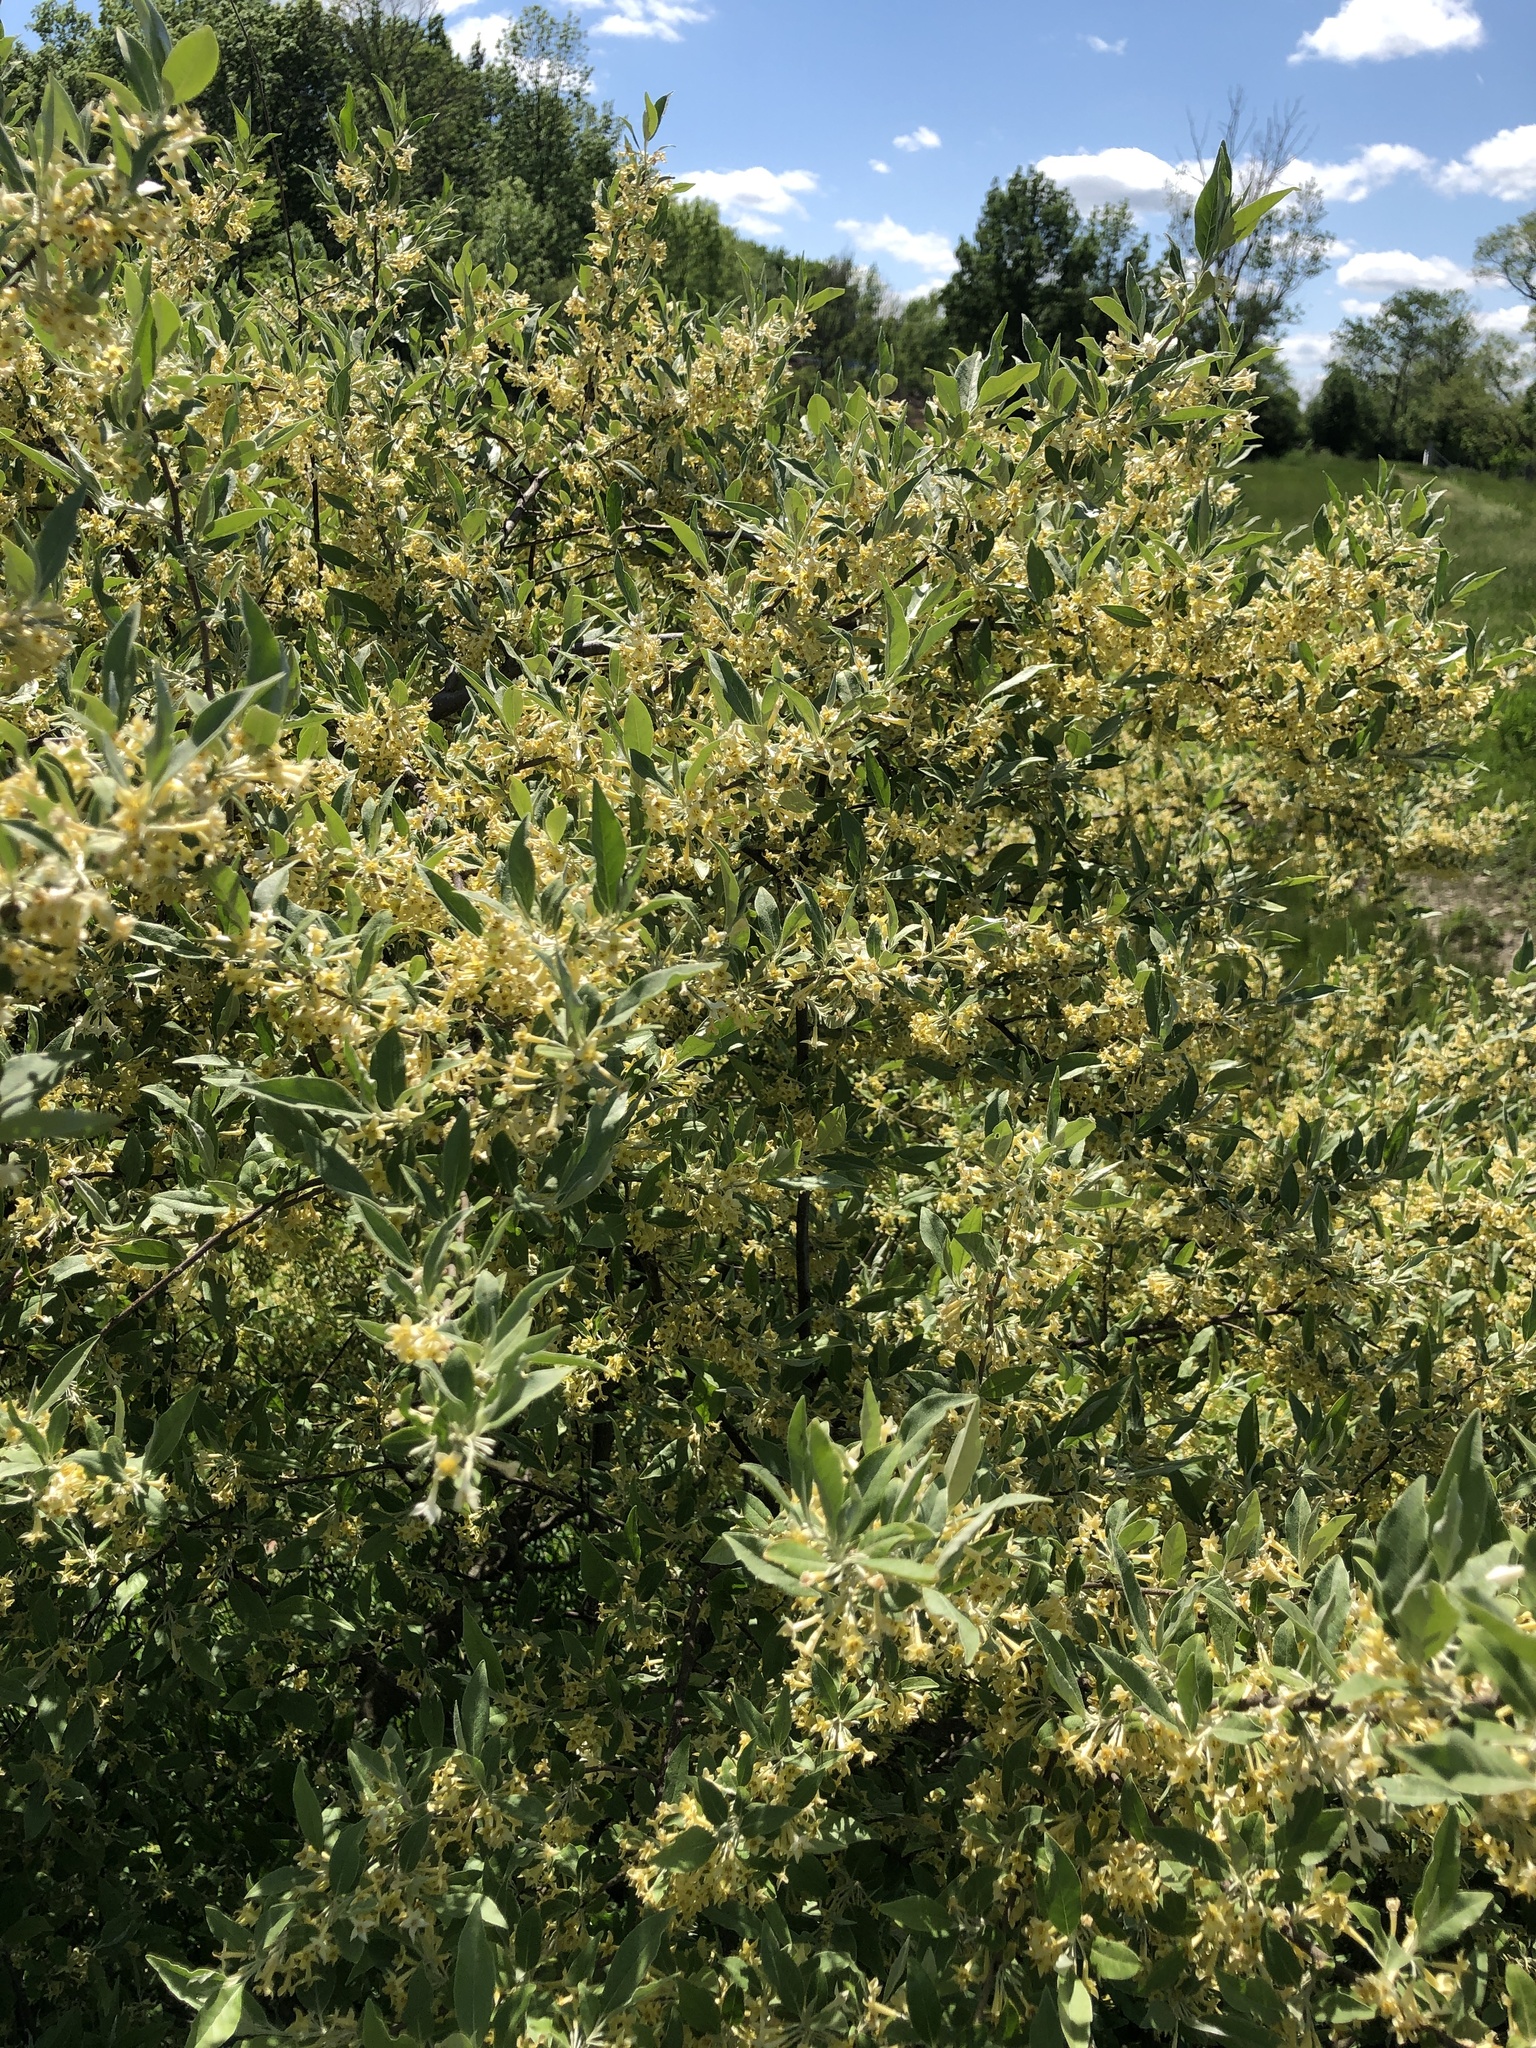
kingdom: Plantae
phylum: Tracheophyta
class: Magnoliopsida
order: Rosales
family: Elaeagnaceae
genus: Elaeagnus
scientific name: Elaeagnus umbellata
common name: Autumn olive
